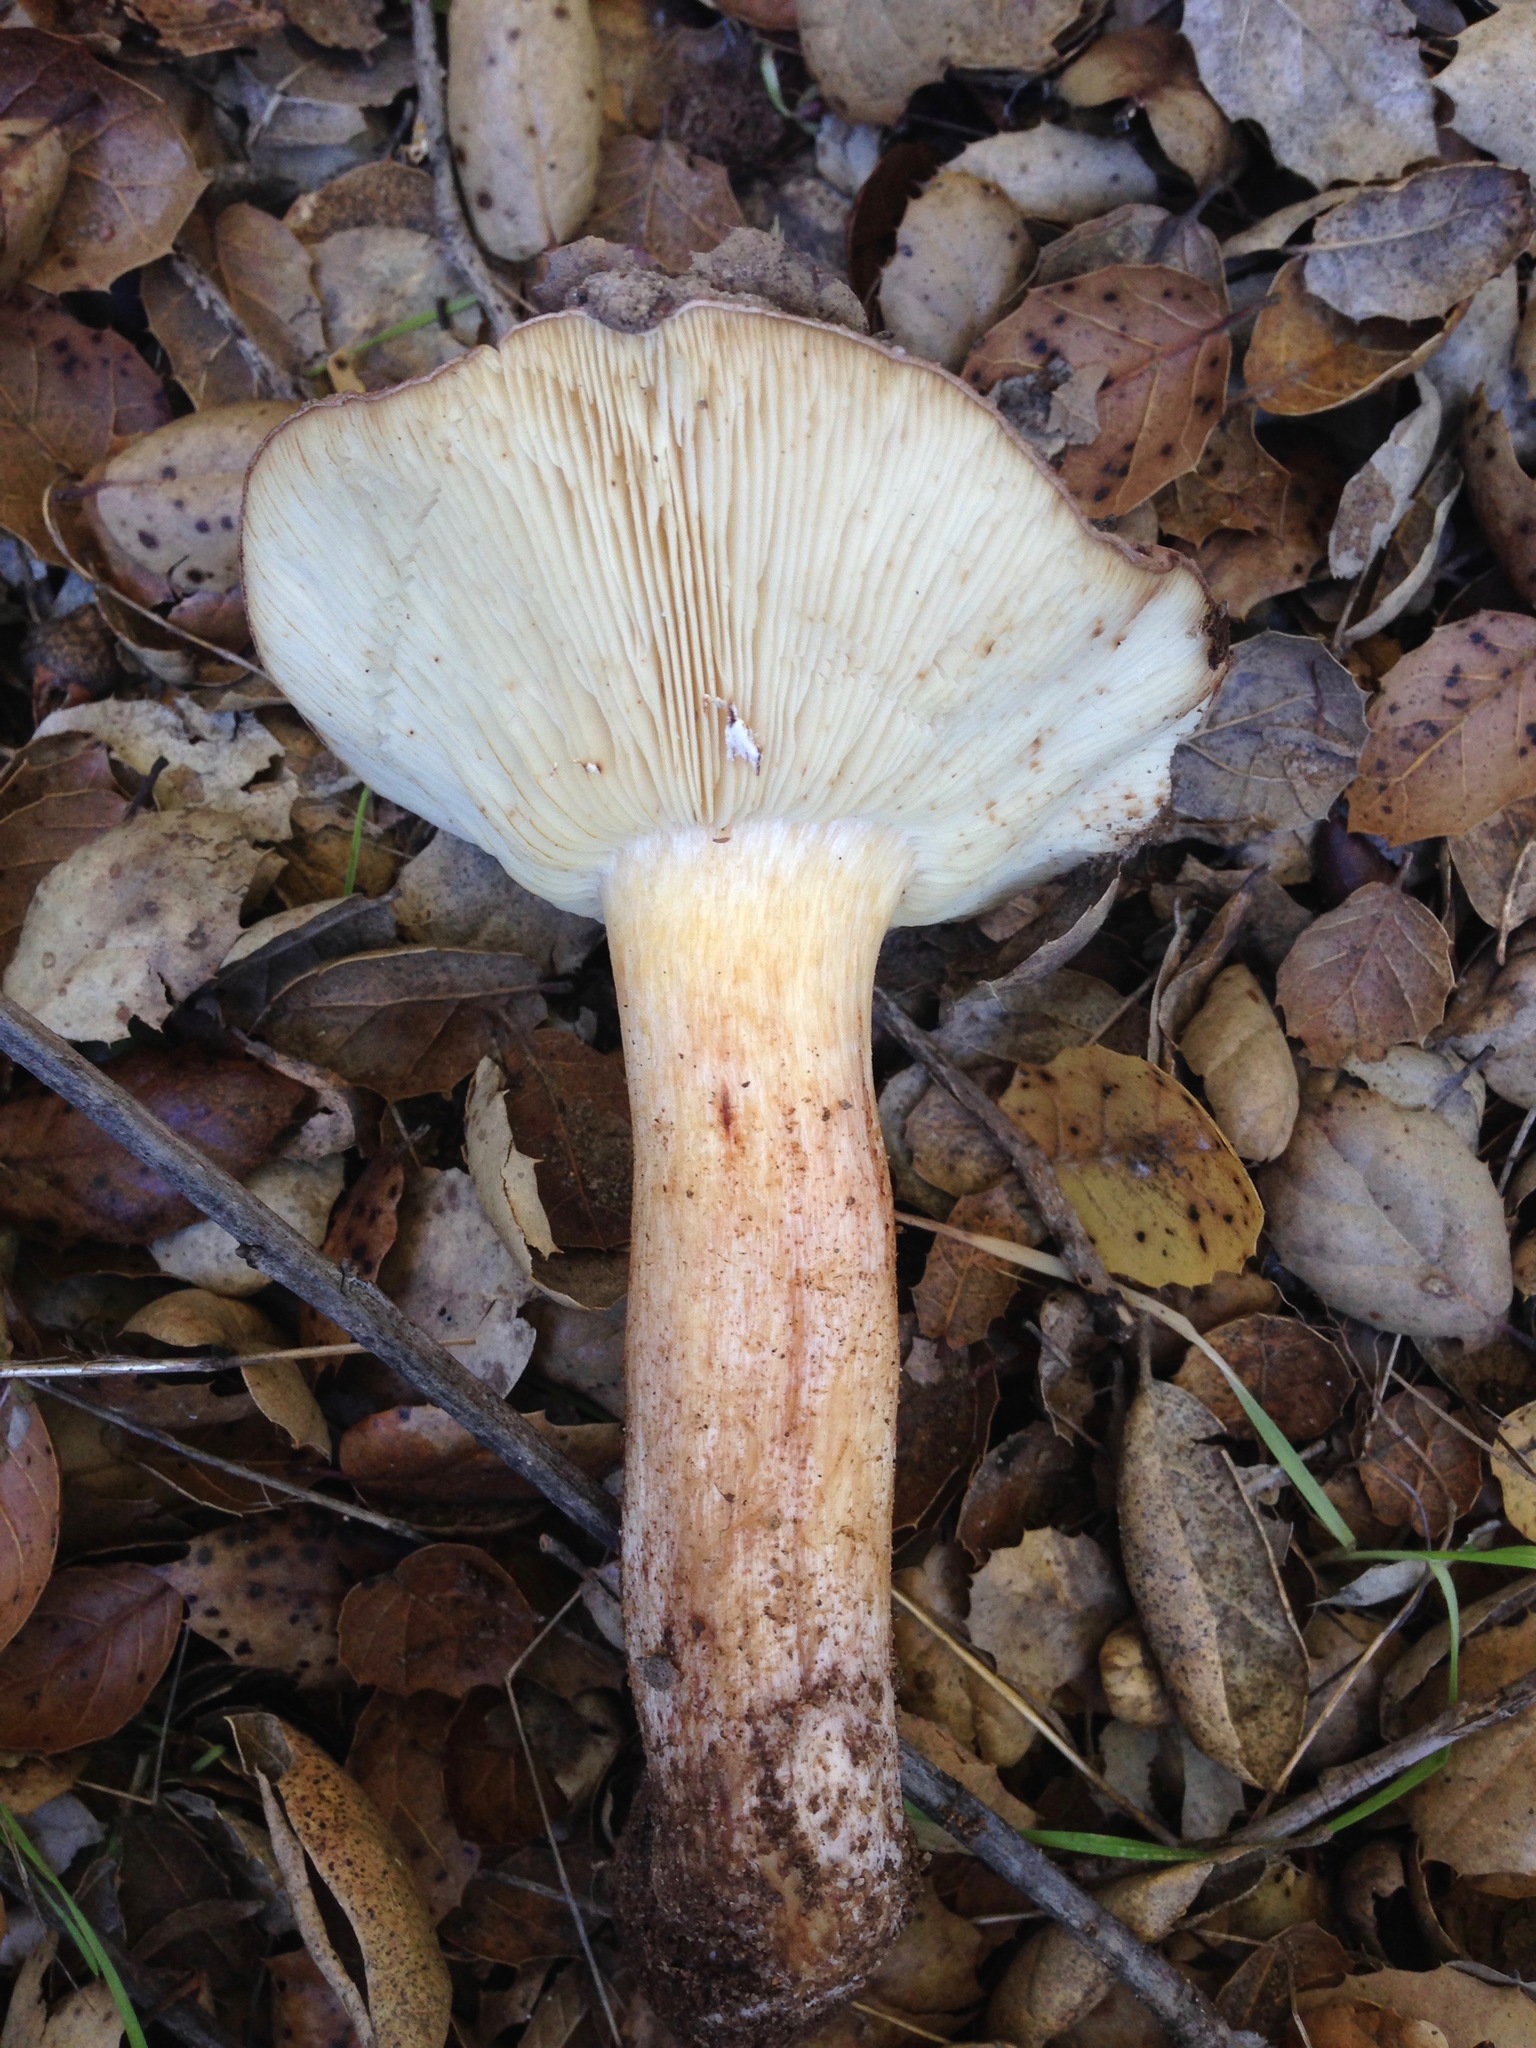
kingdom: Fungi
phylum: Basidiomycota
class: Agaricomycetes
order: Agaricales
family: Tricholomataceae
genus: Melanoleuca
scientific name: Melanoleuca dryophila
